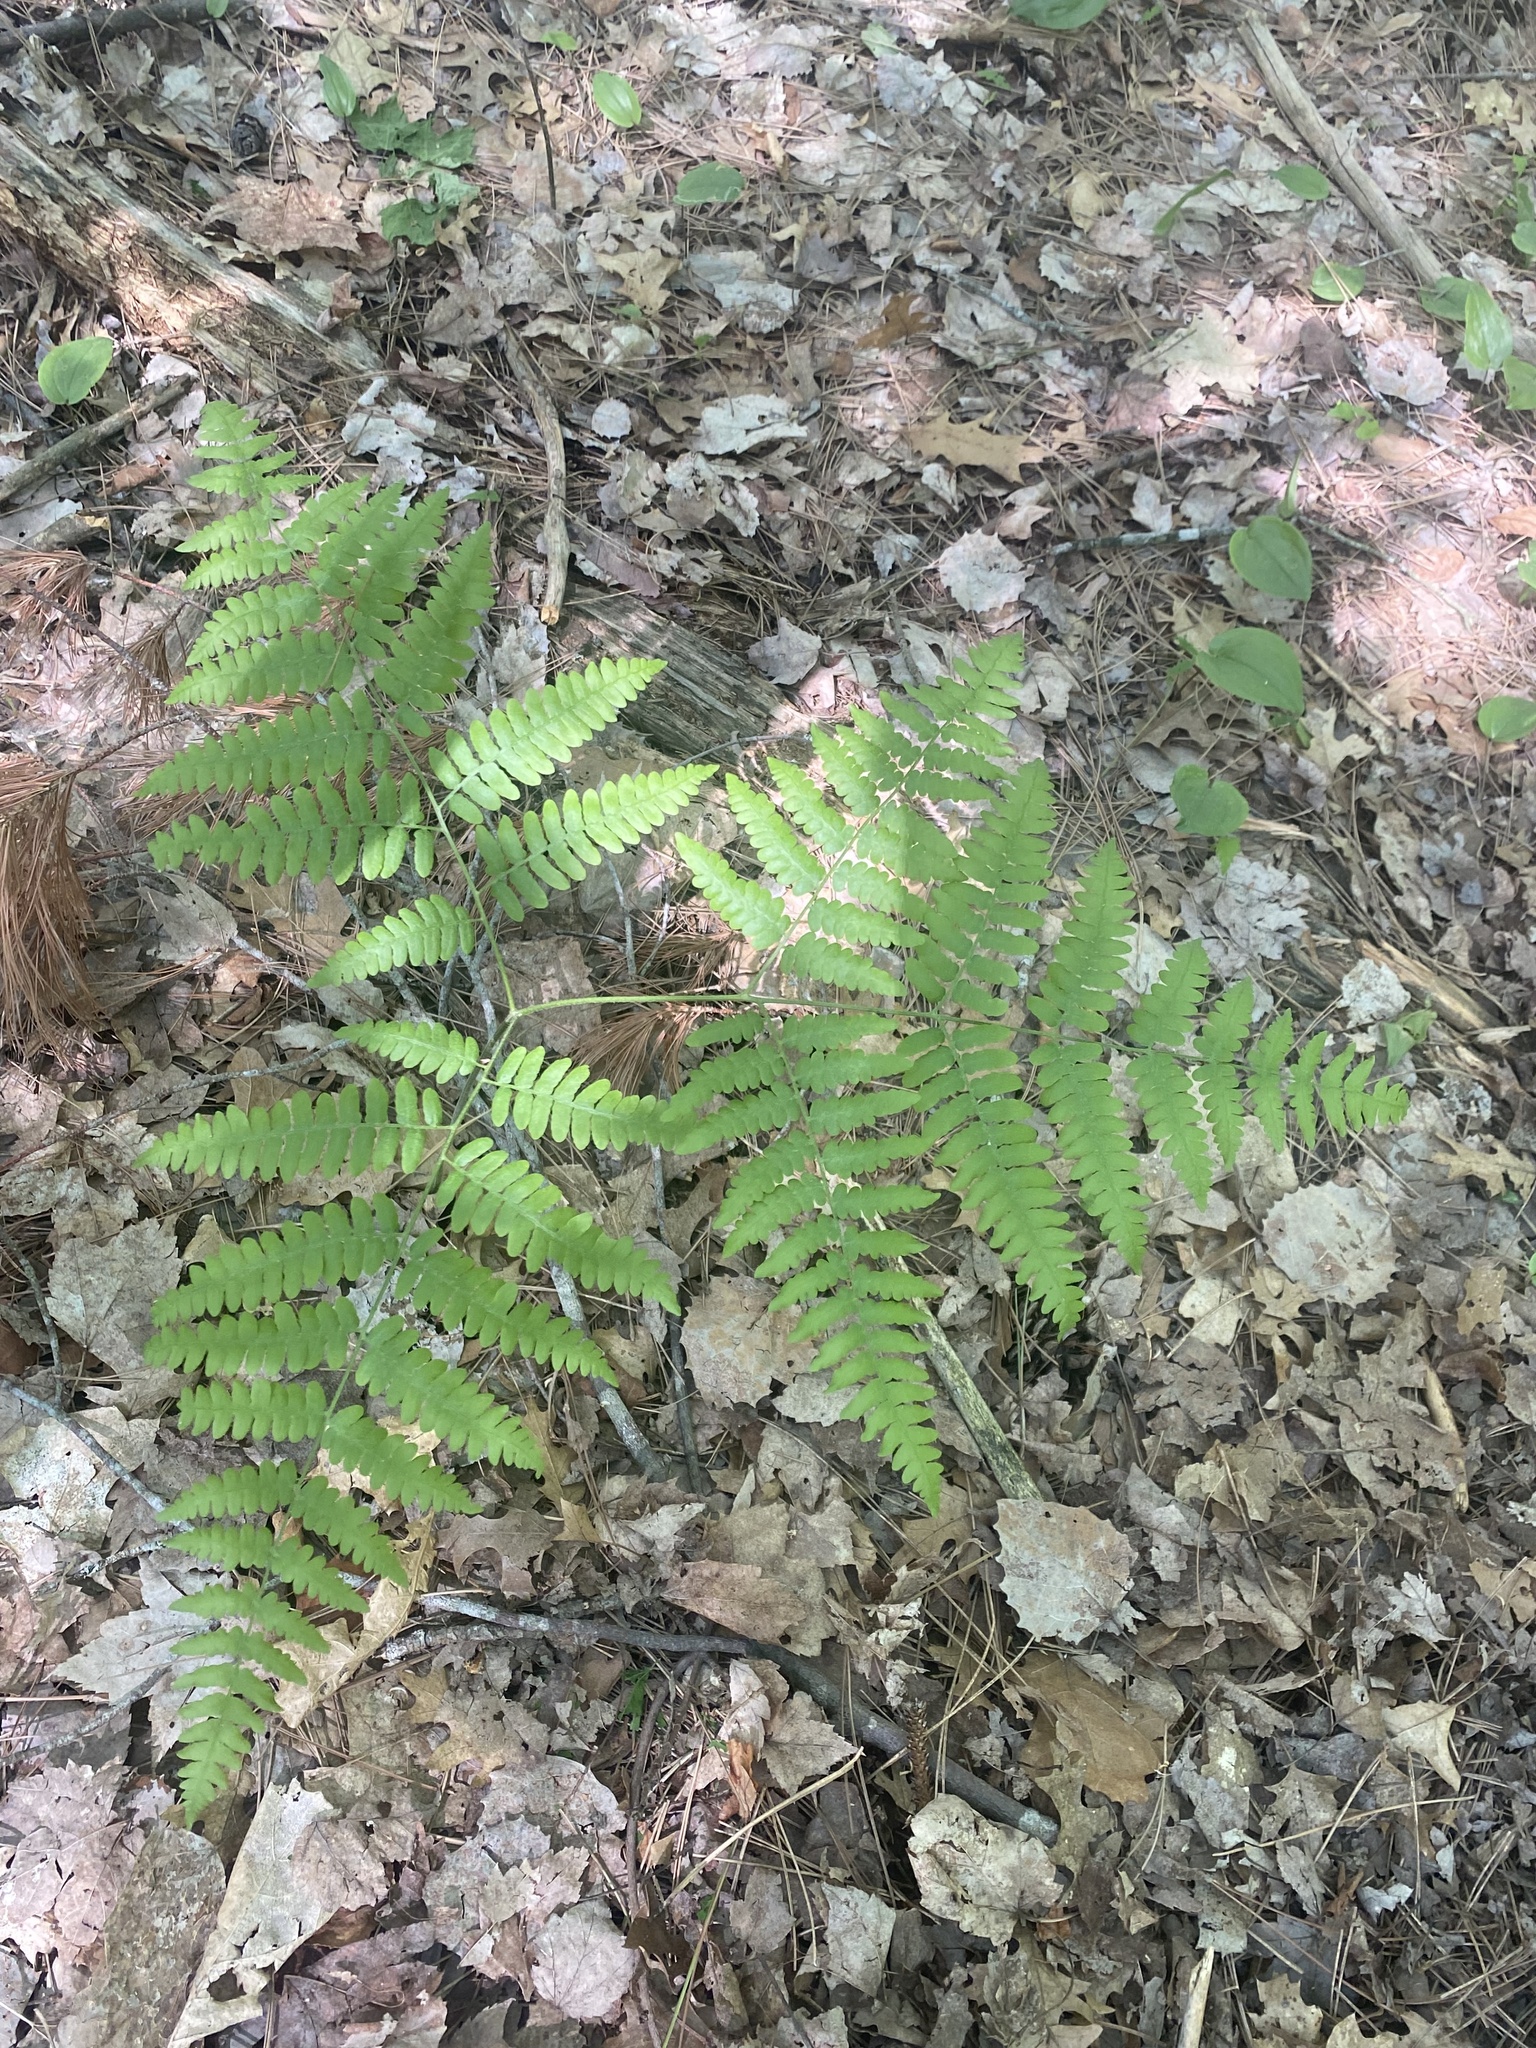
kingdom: Plantae
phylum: Tracheophyta
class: Polypodiopsida
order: Polypodiales
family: Dennstaedtiaceae
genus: Pteridium
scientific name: Pteridium aquilinum
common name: Bracken
